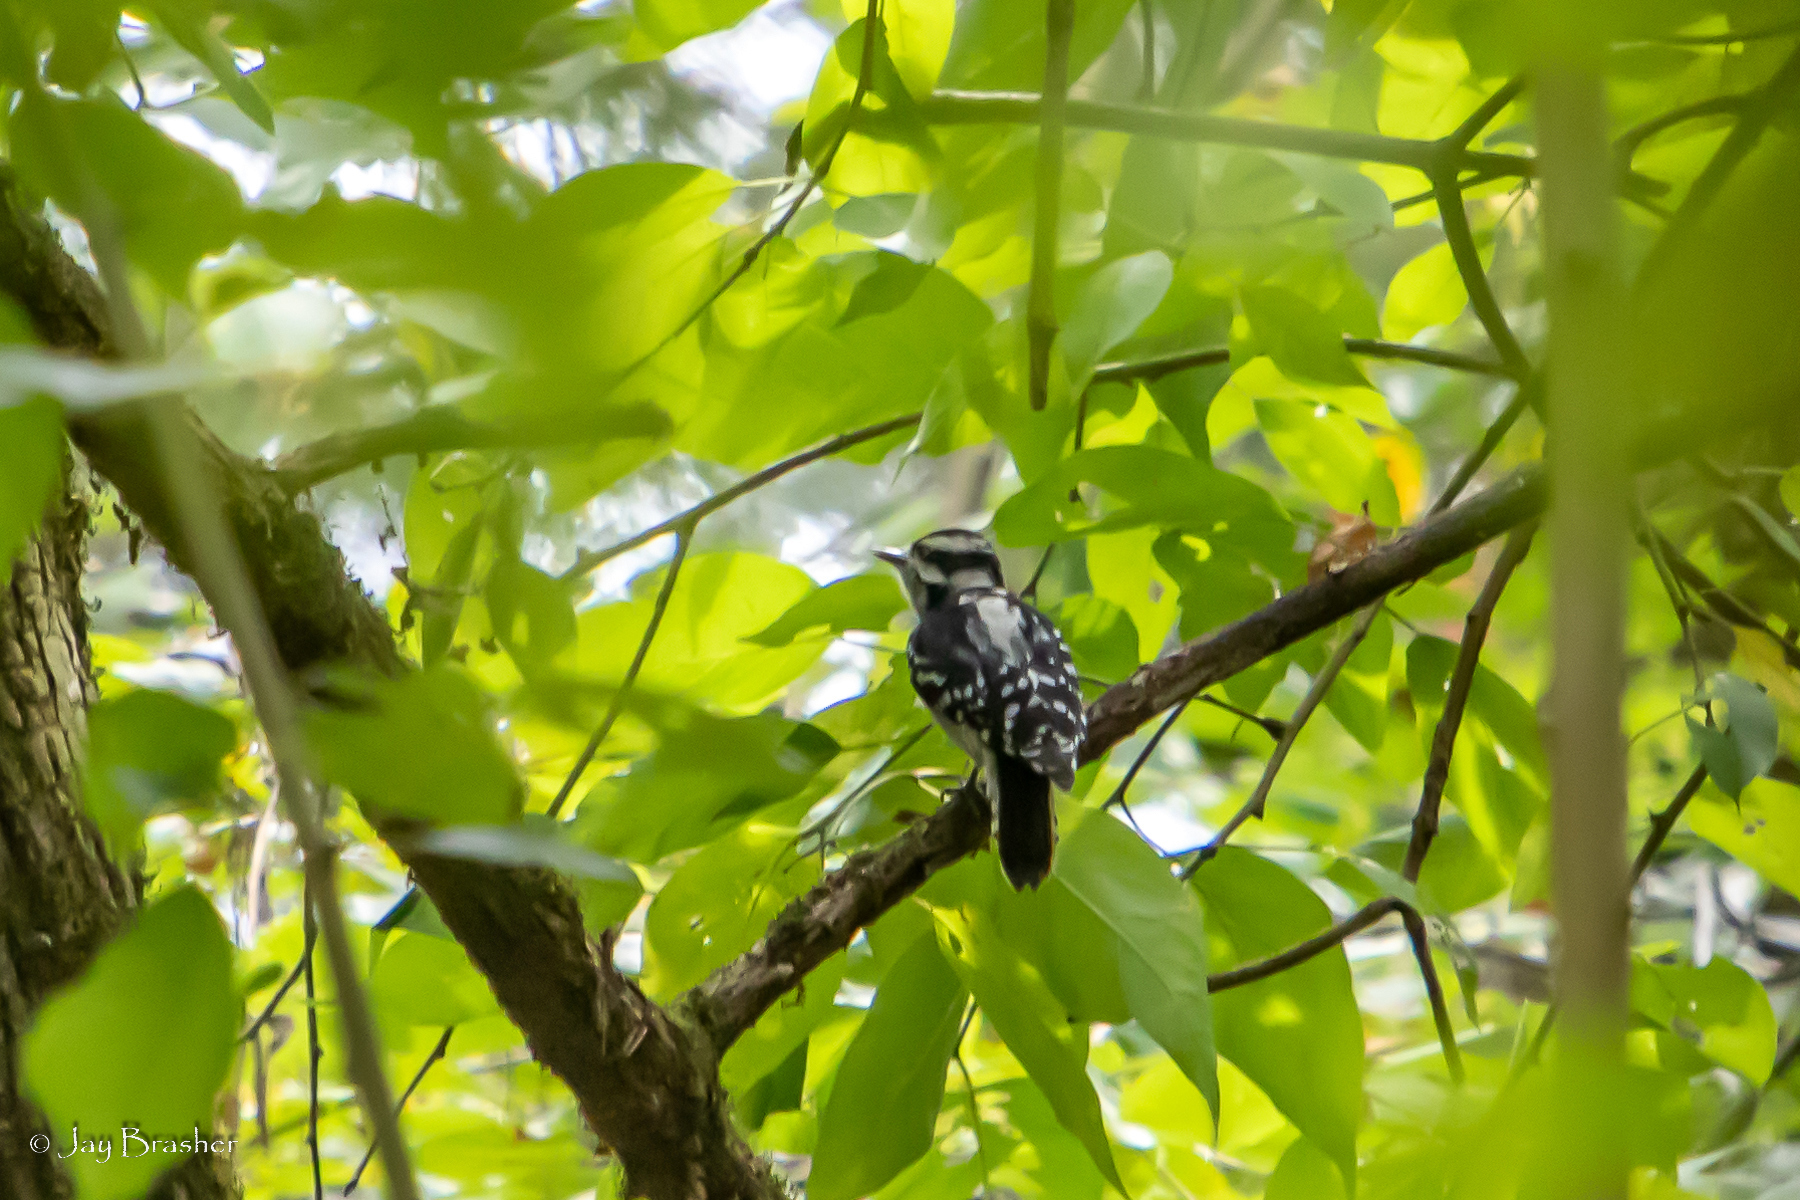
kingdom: Animalia
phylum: Chordata
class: Aves
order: Piciformes
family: Picidae
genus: Dryobates
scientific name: Dryobates pubescens
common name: Downy woodpecker
